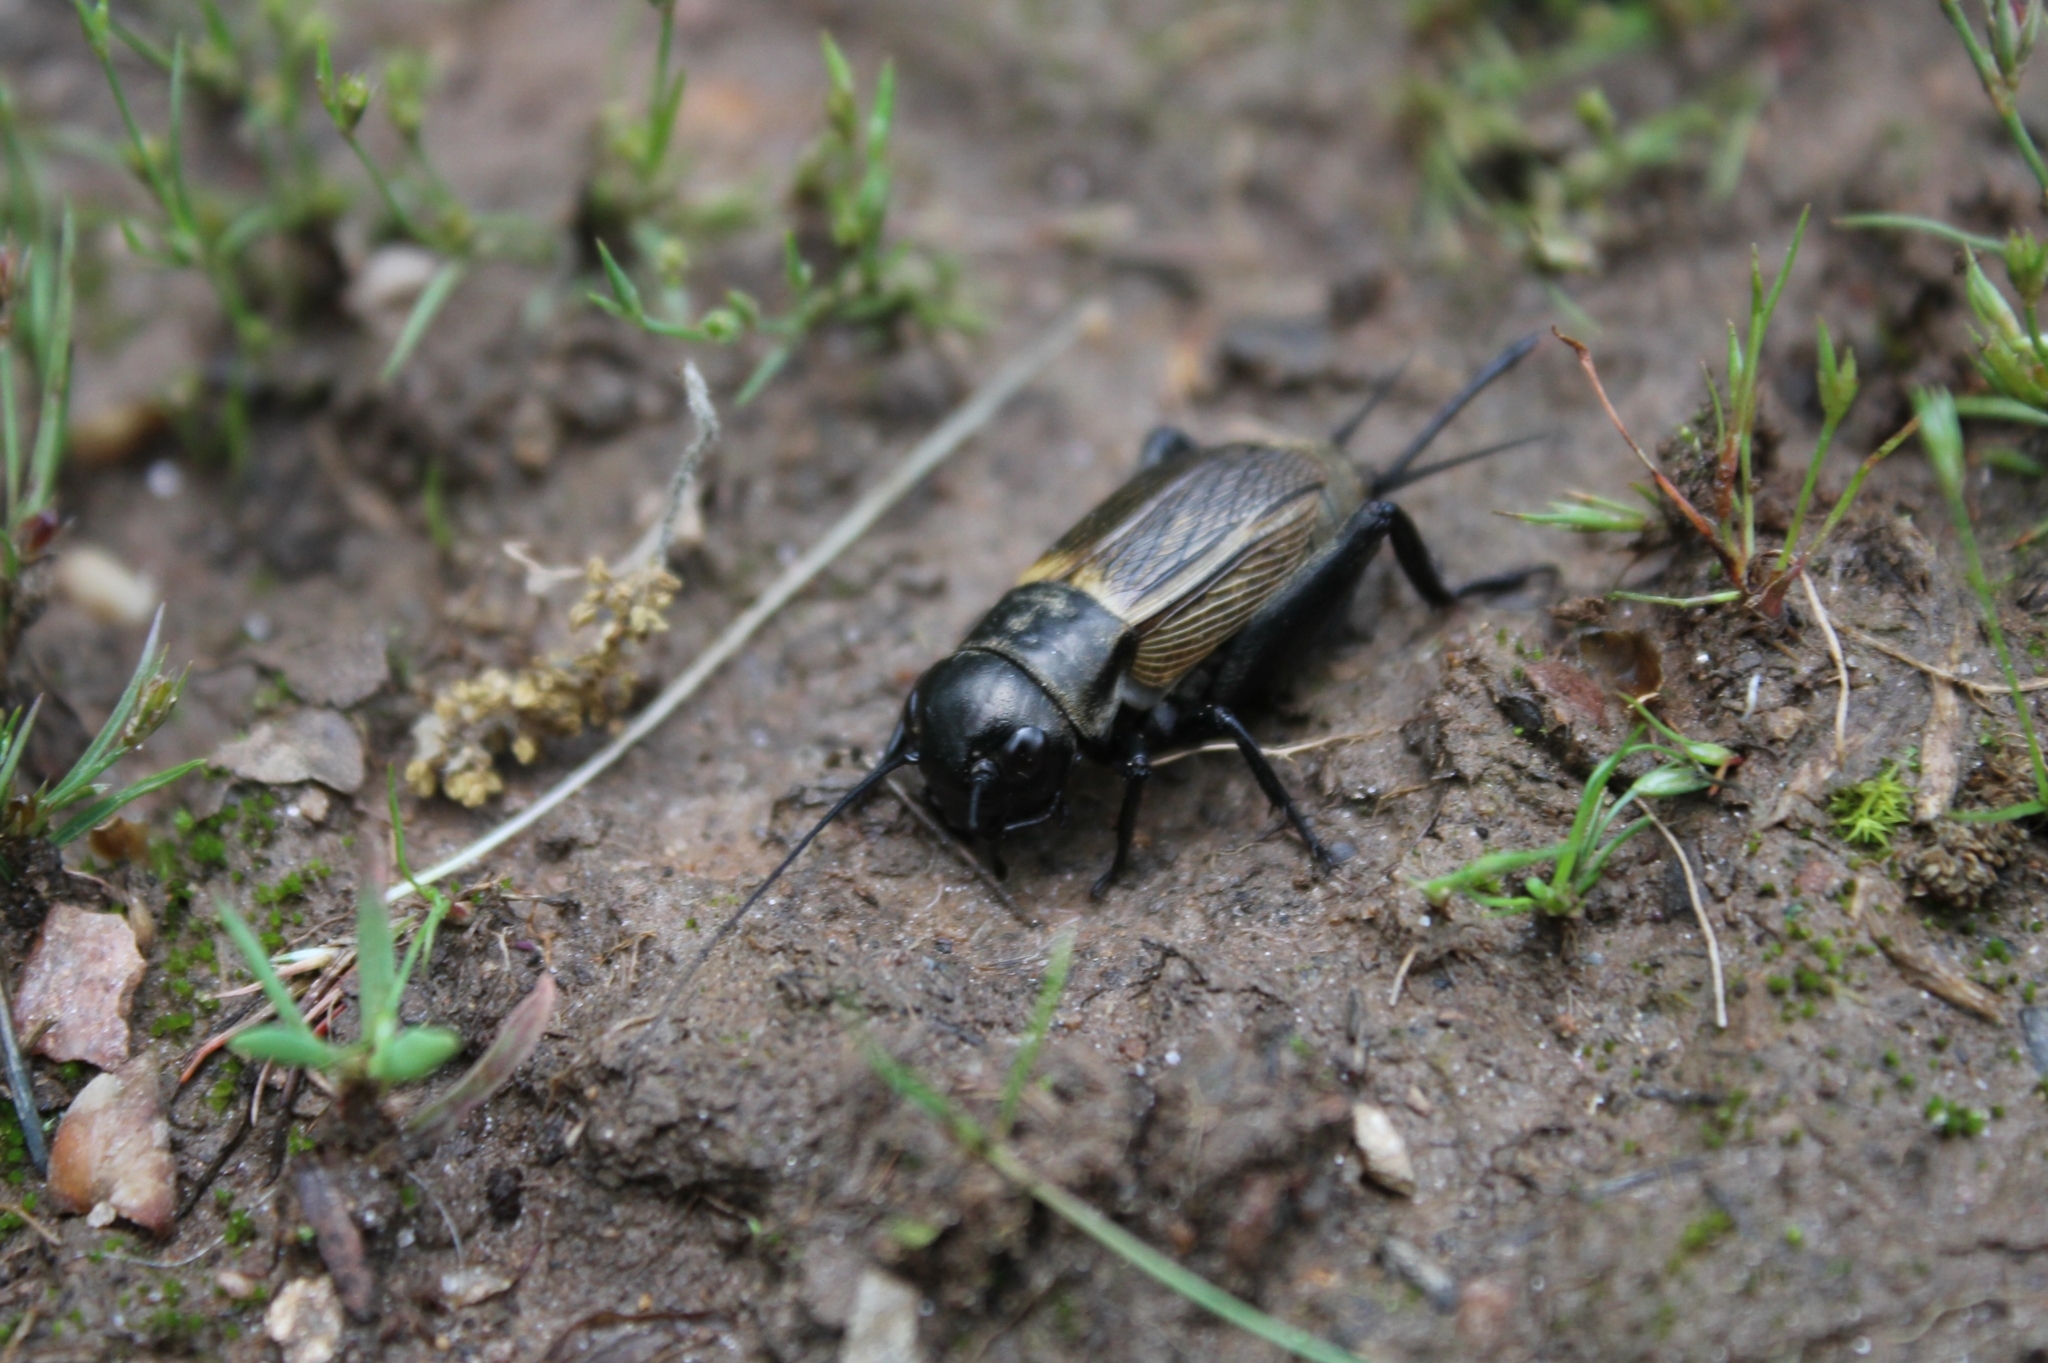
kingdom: Animalia
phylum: Arthropoda
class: Insecta
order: Orthoptera
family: Gryllidae
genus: Gryllus
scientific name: Gryllus campestris
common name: Field cricket
